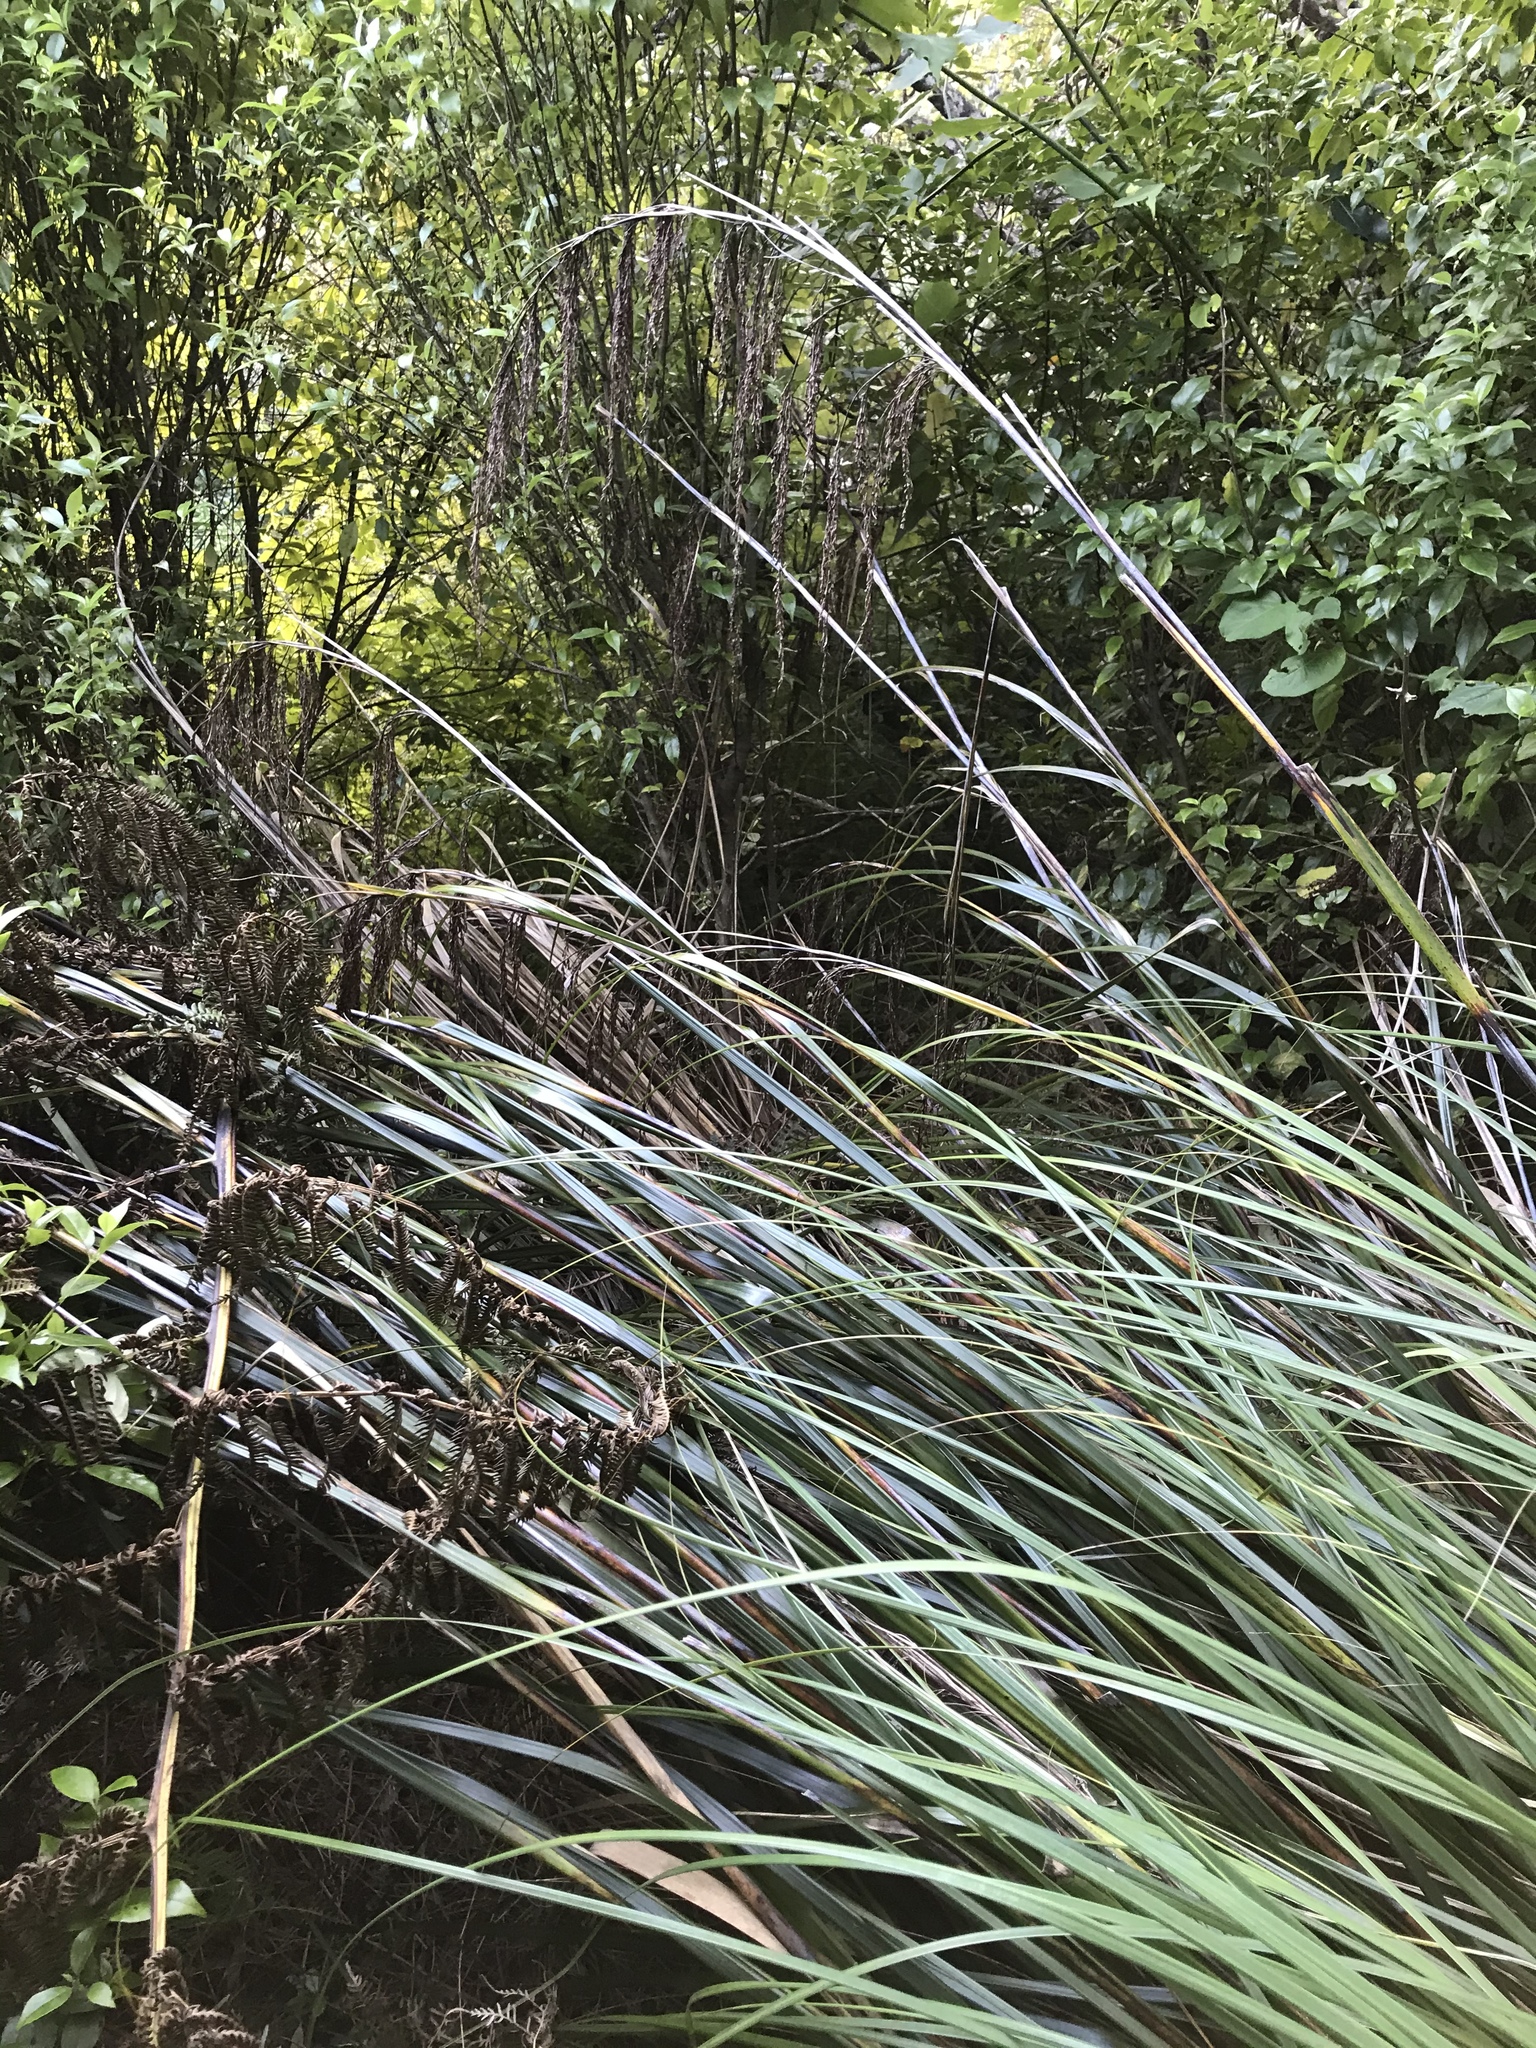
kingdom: Plantae
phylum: Tracheophyta
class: Liliopsida
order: Poales
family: Cyperaceae
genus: Gahnia
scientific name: Gahnia setifolia
